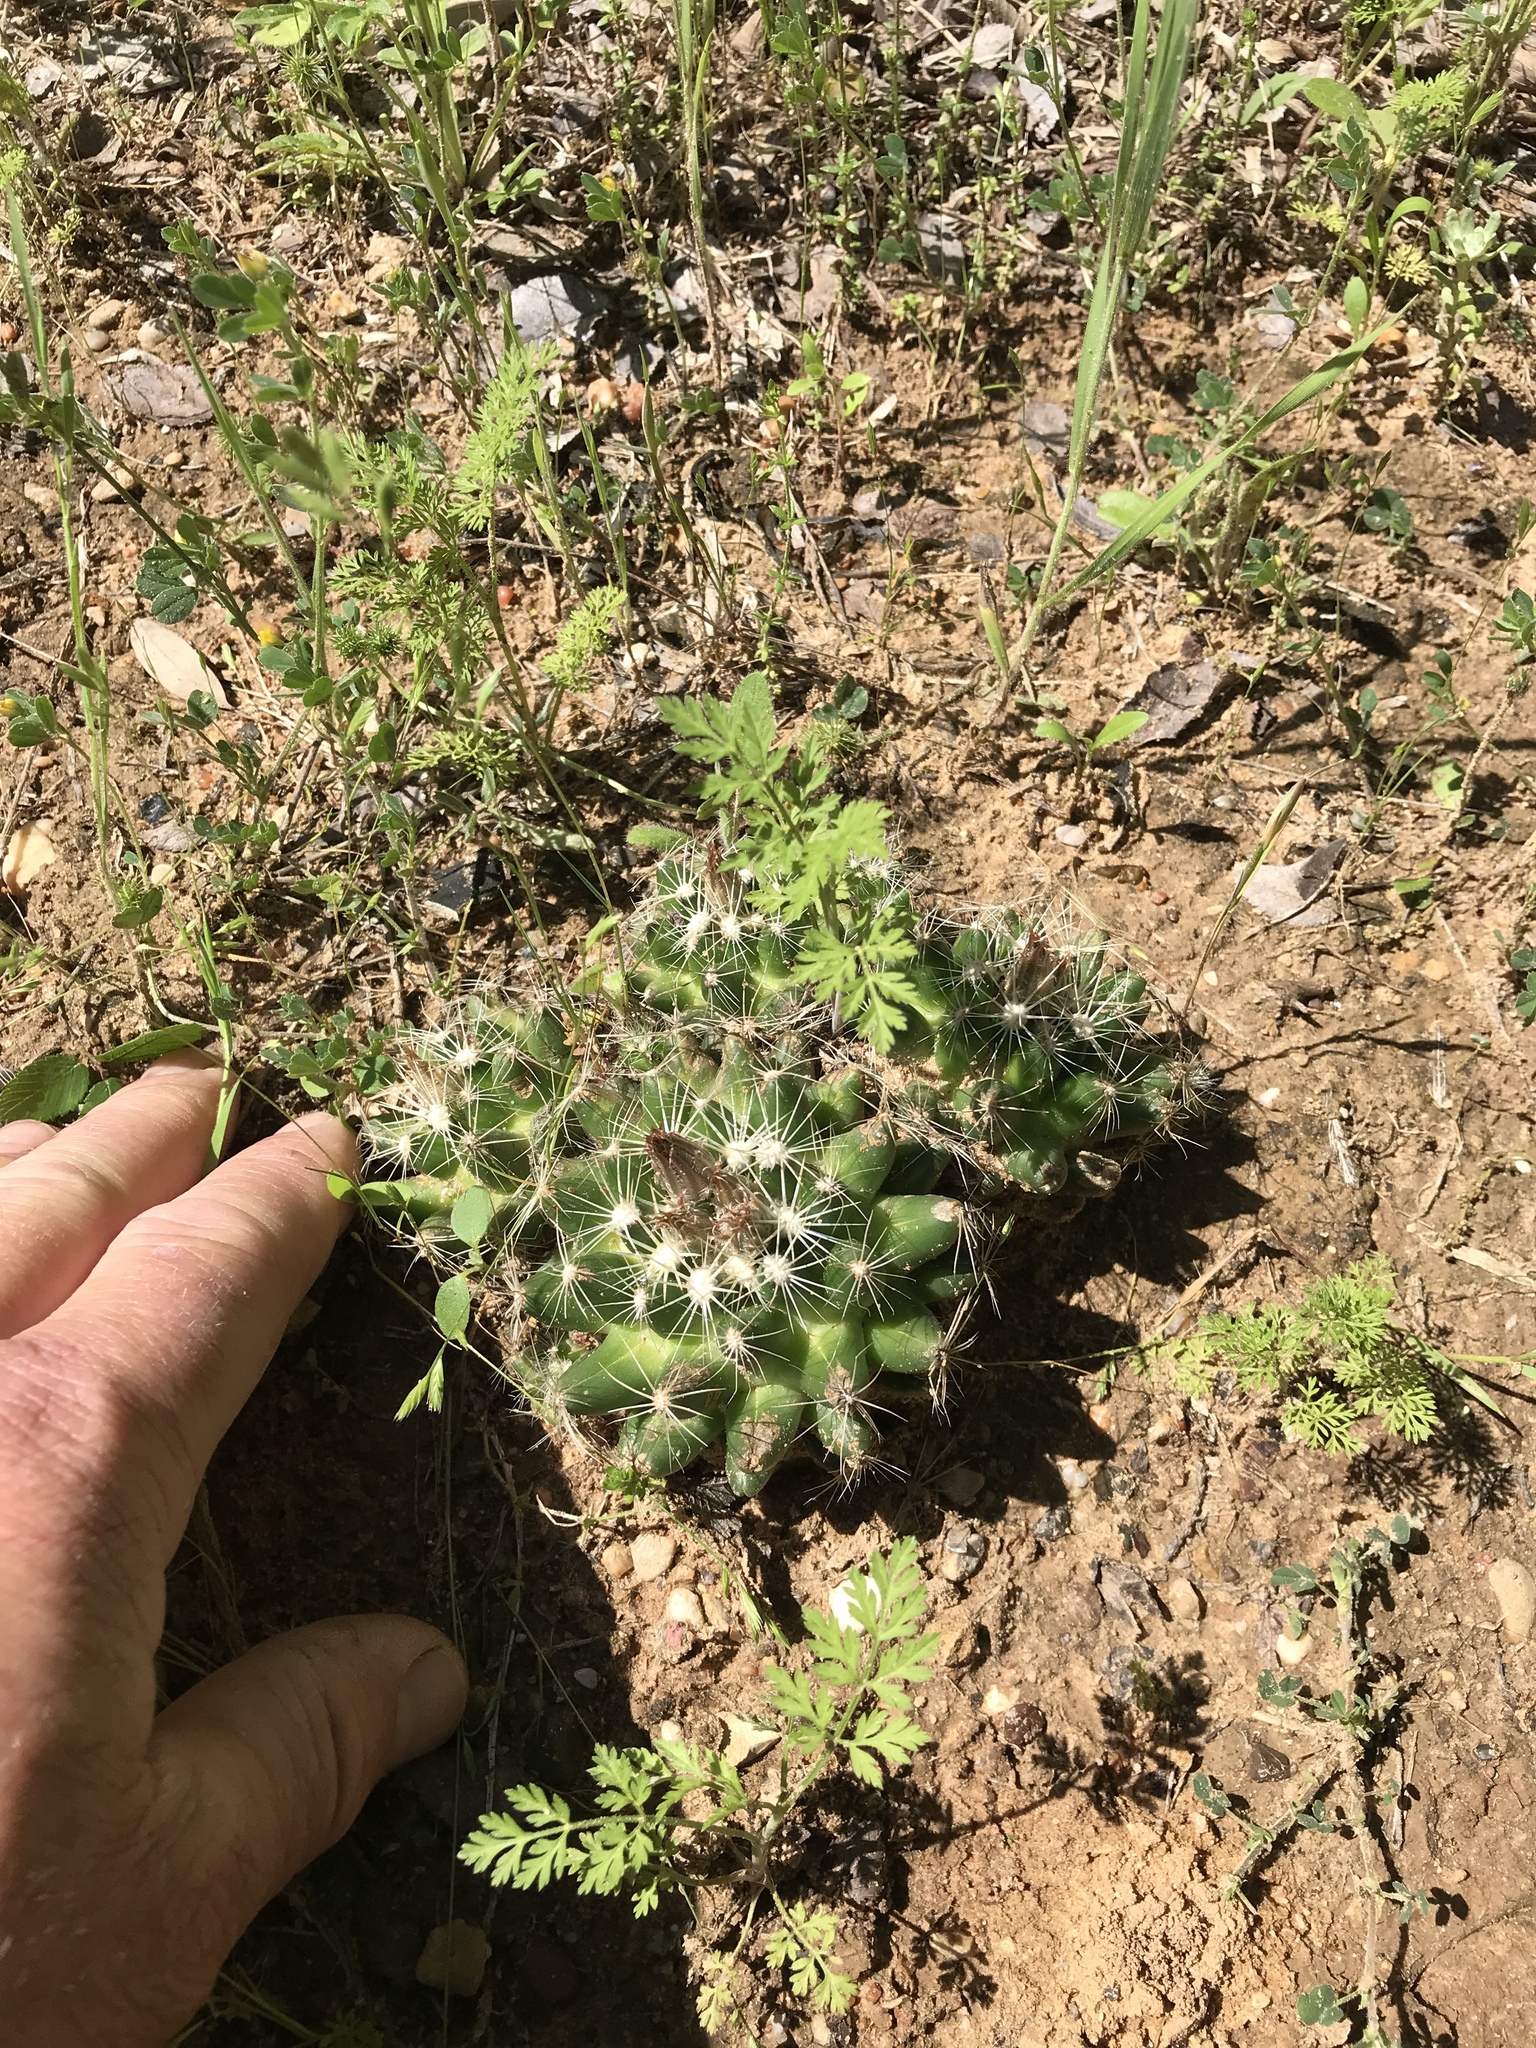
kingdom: Plantae
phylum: Tracheophyta
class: Magnoliopsida
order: Caryophyllales
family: Cactaceae
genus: Pelecyphora
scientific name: Pelecyphora missouriensis
